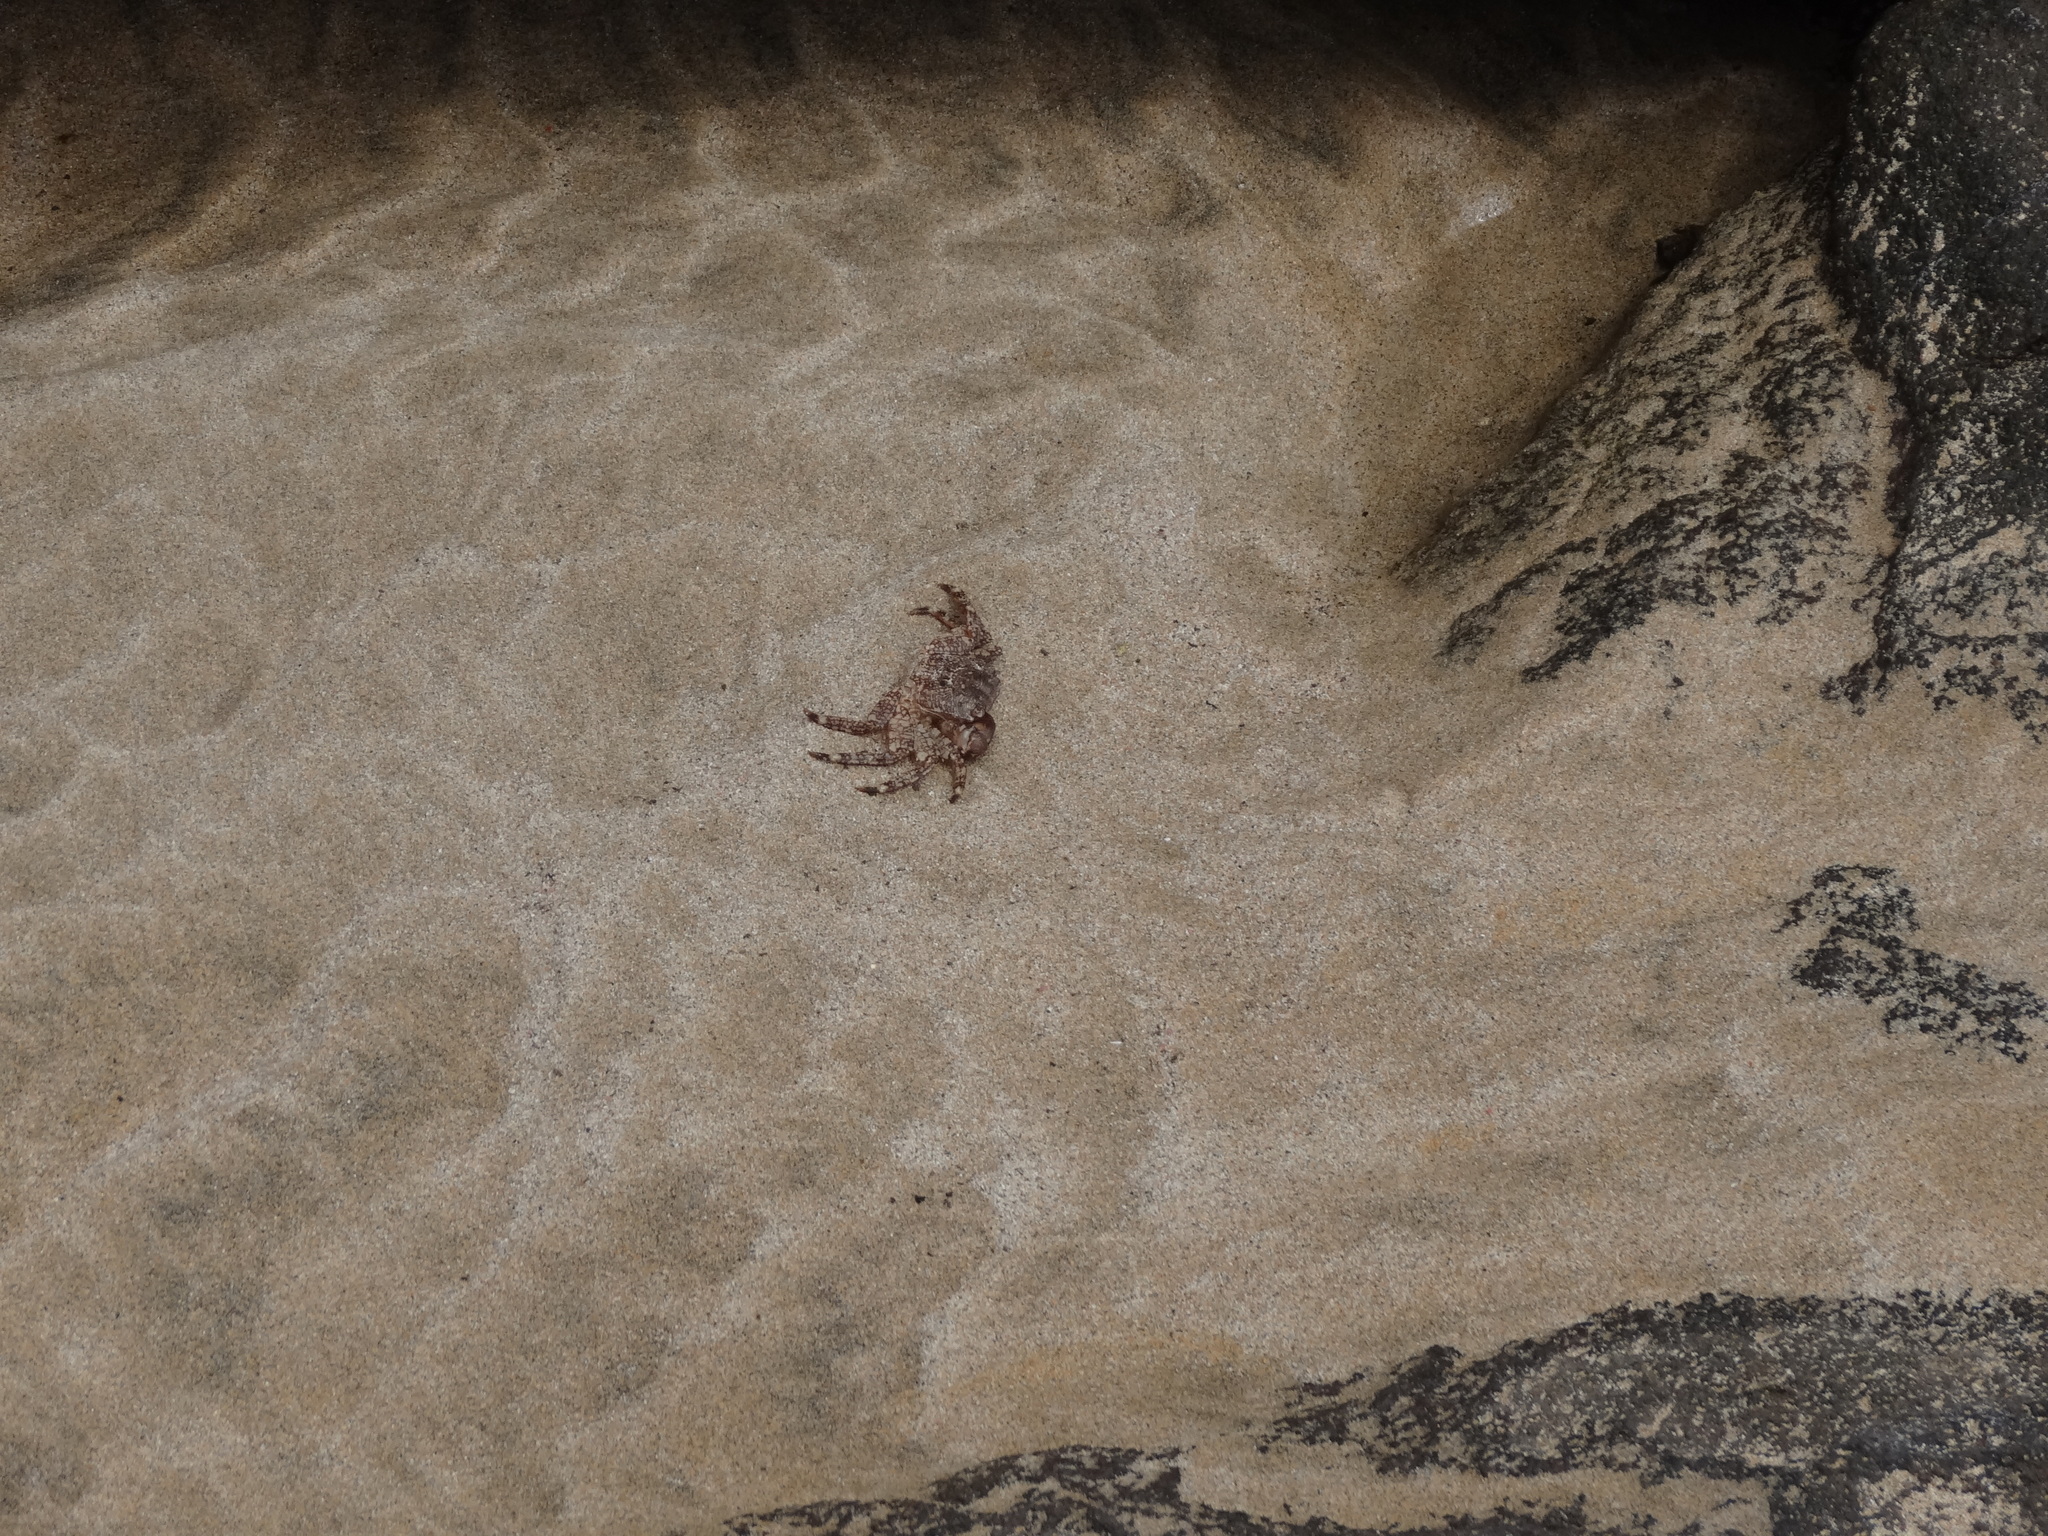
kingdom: Animalia
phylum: Arthropoda
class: Malacostraca
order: Decapoda
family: Grapsidae
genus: Pachygrapsus
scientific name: Pachygrapsus marmoratus
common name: Marbled rock crab
